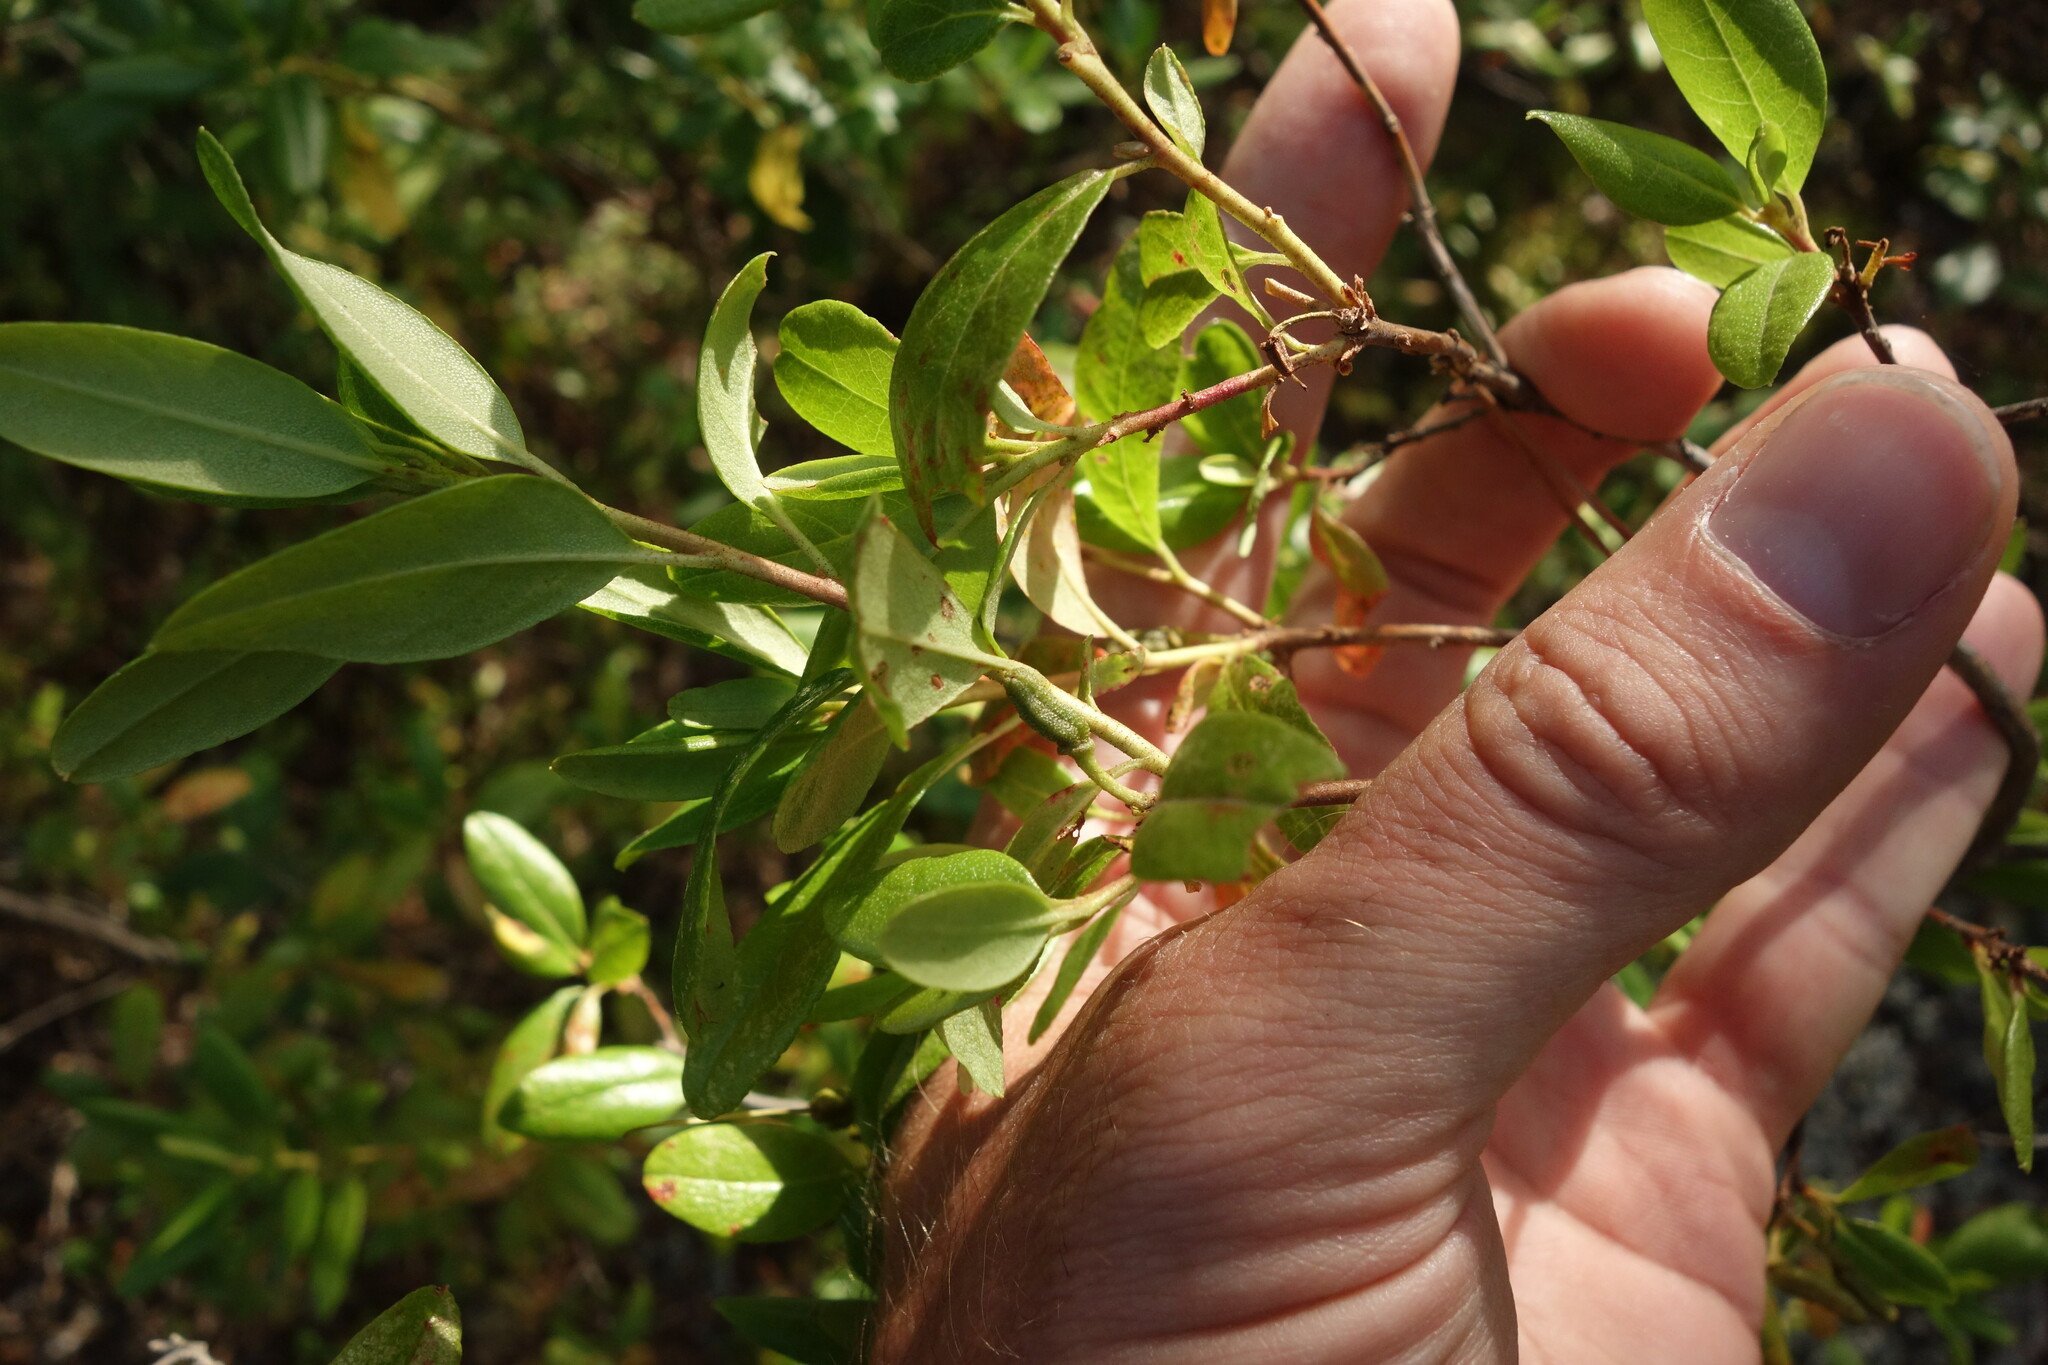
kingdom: Plantae
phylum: Tracheophyta
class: Magnoliopsida
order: Ericales
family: Ericaceae
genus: Rhododendron
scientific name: Rhododendron dauricum
